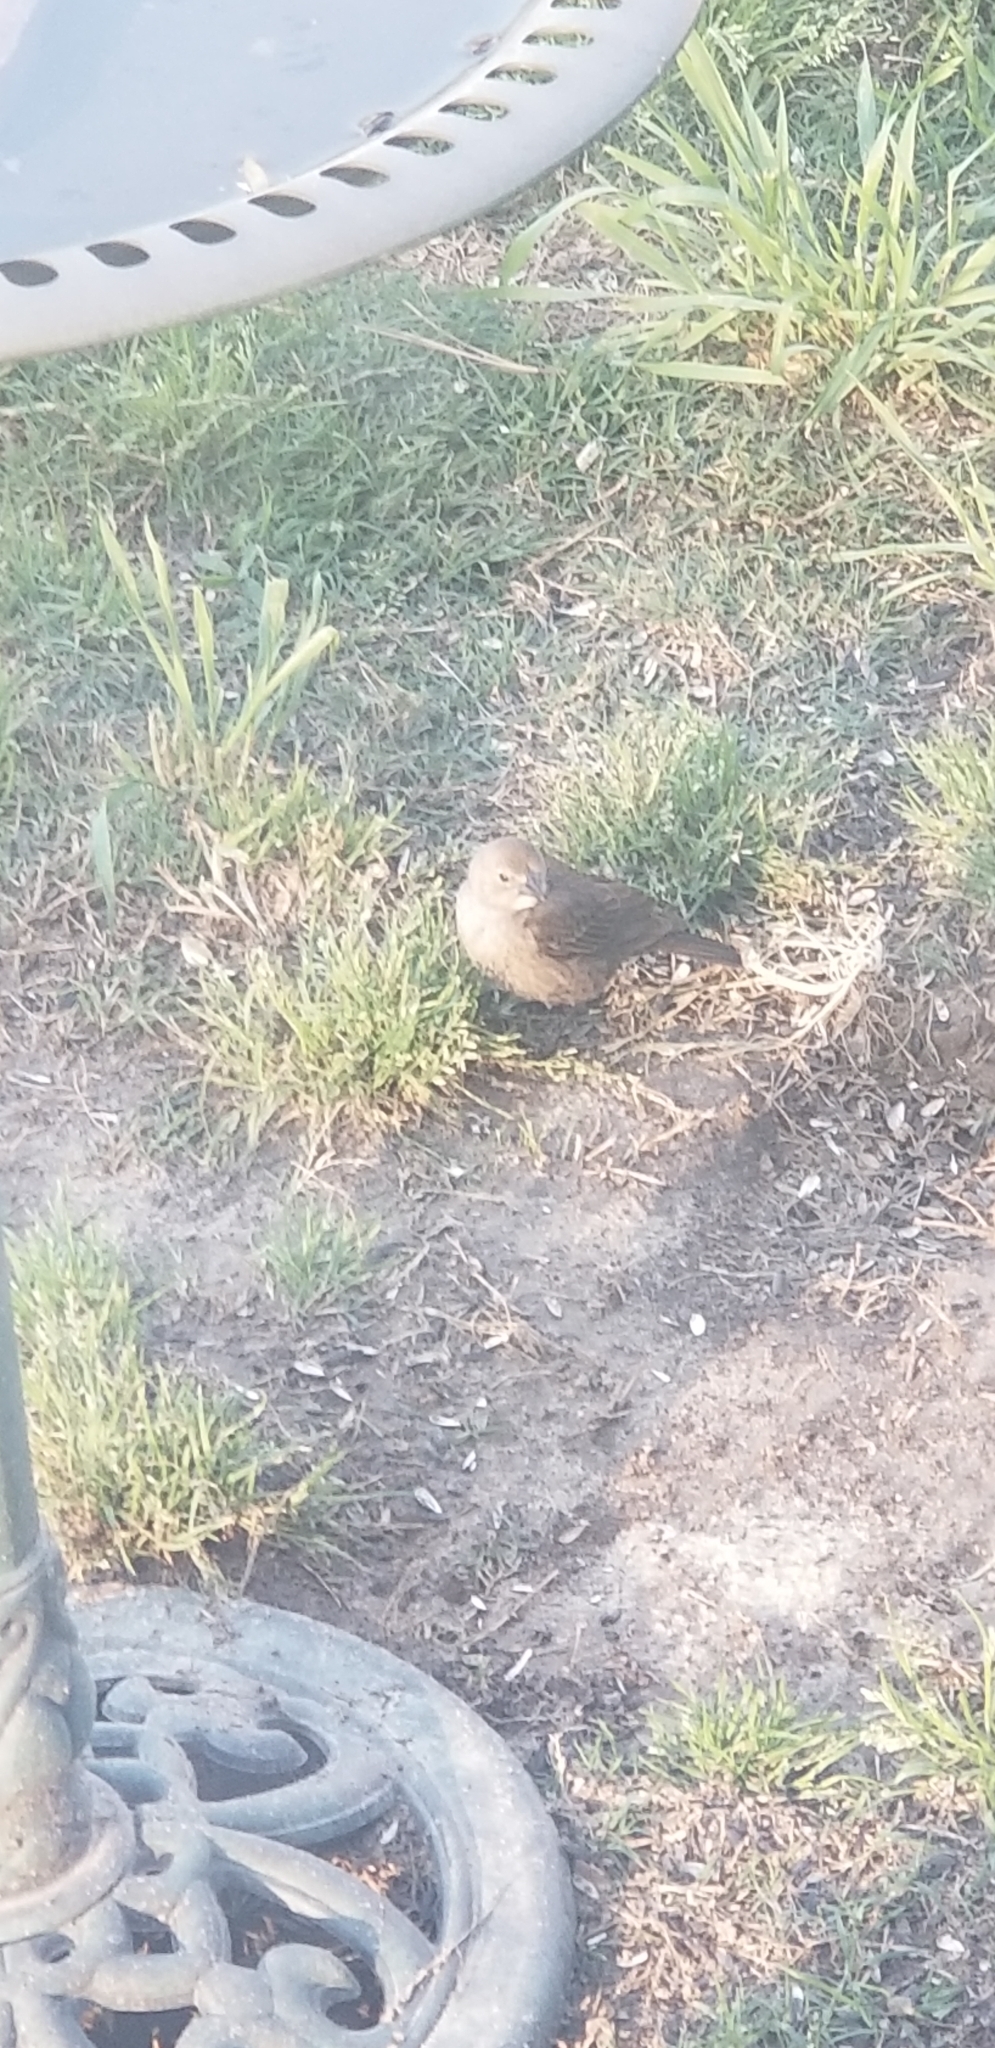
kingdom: Animalia
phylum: Chordata
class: Aves
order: Passeriformes
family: Icteridae
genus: Molothrus
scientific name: Molothrus ater
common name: Brown-headed cowbird
